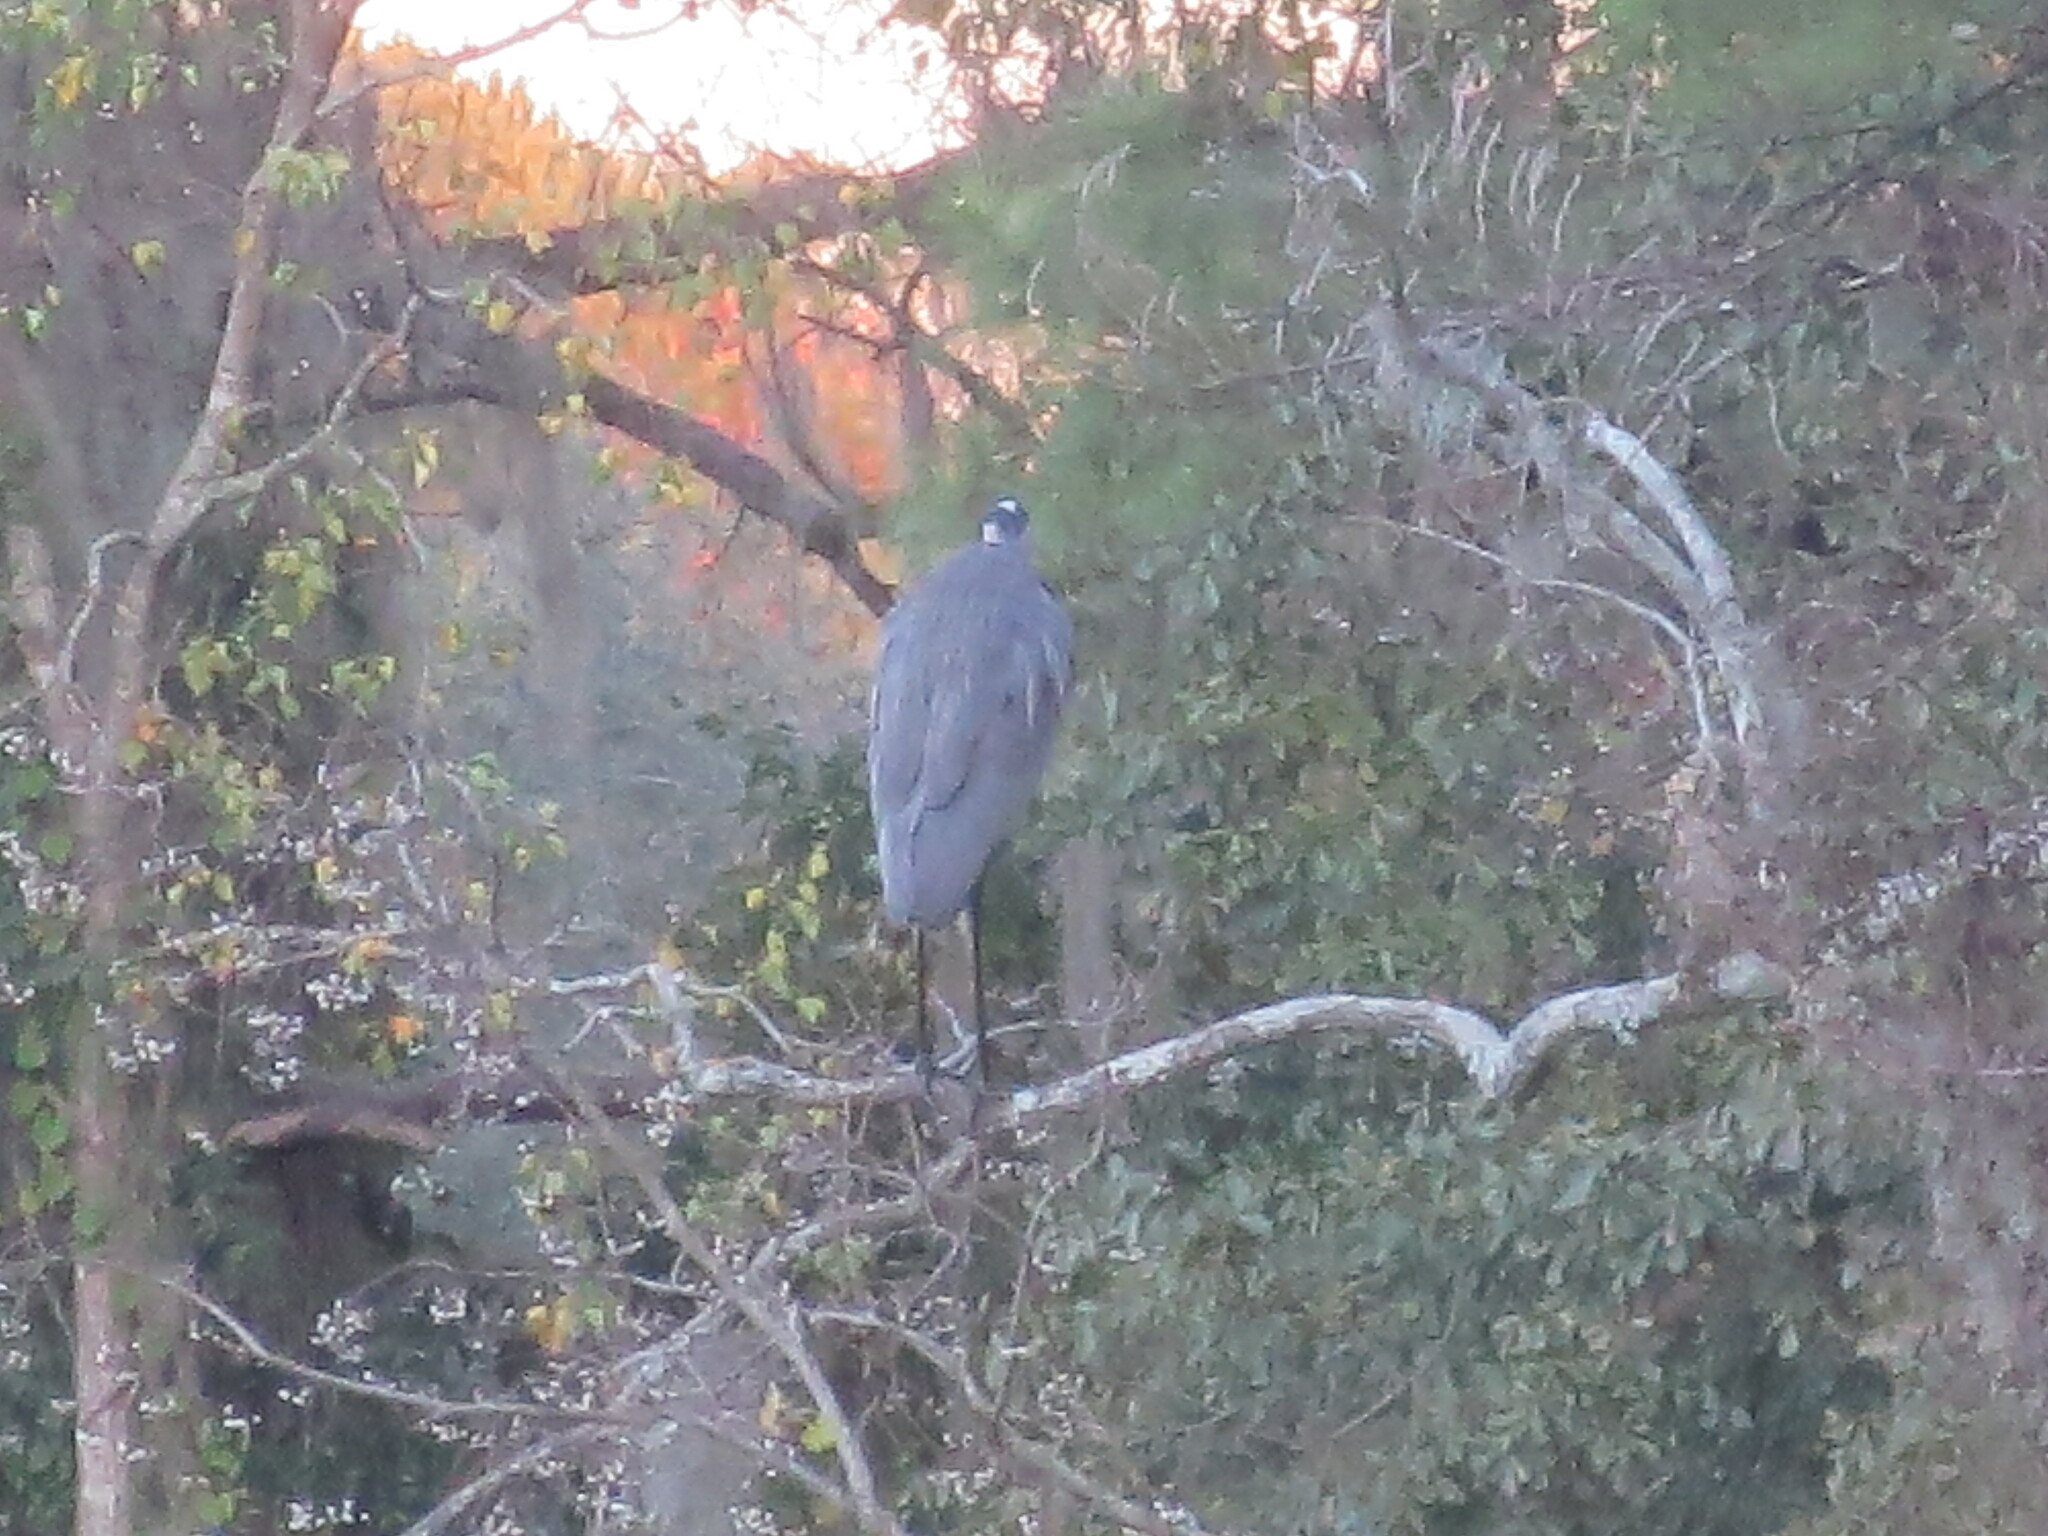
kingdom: Animalia
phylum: Chordata
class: Aves
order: Pelecaniformes
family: Ardeidae
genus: Ardea
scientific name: Ardea herodias
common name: Great blue heron
